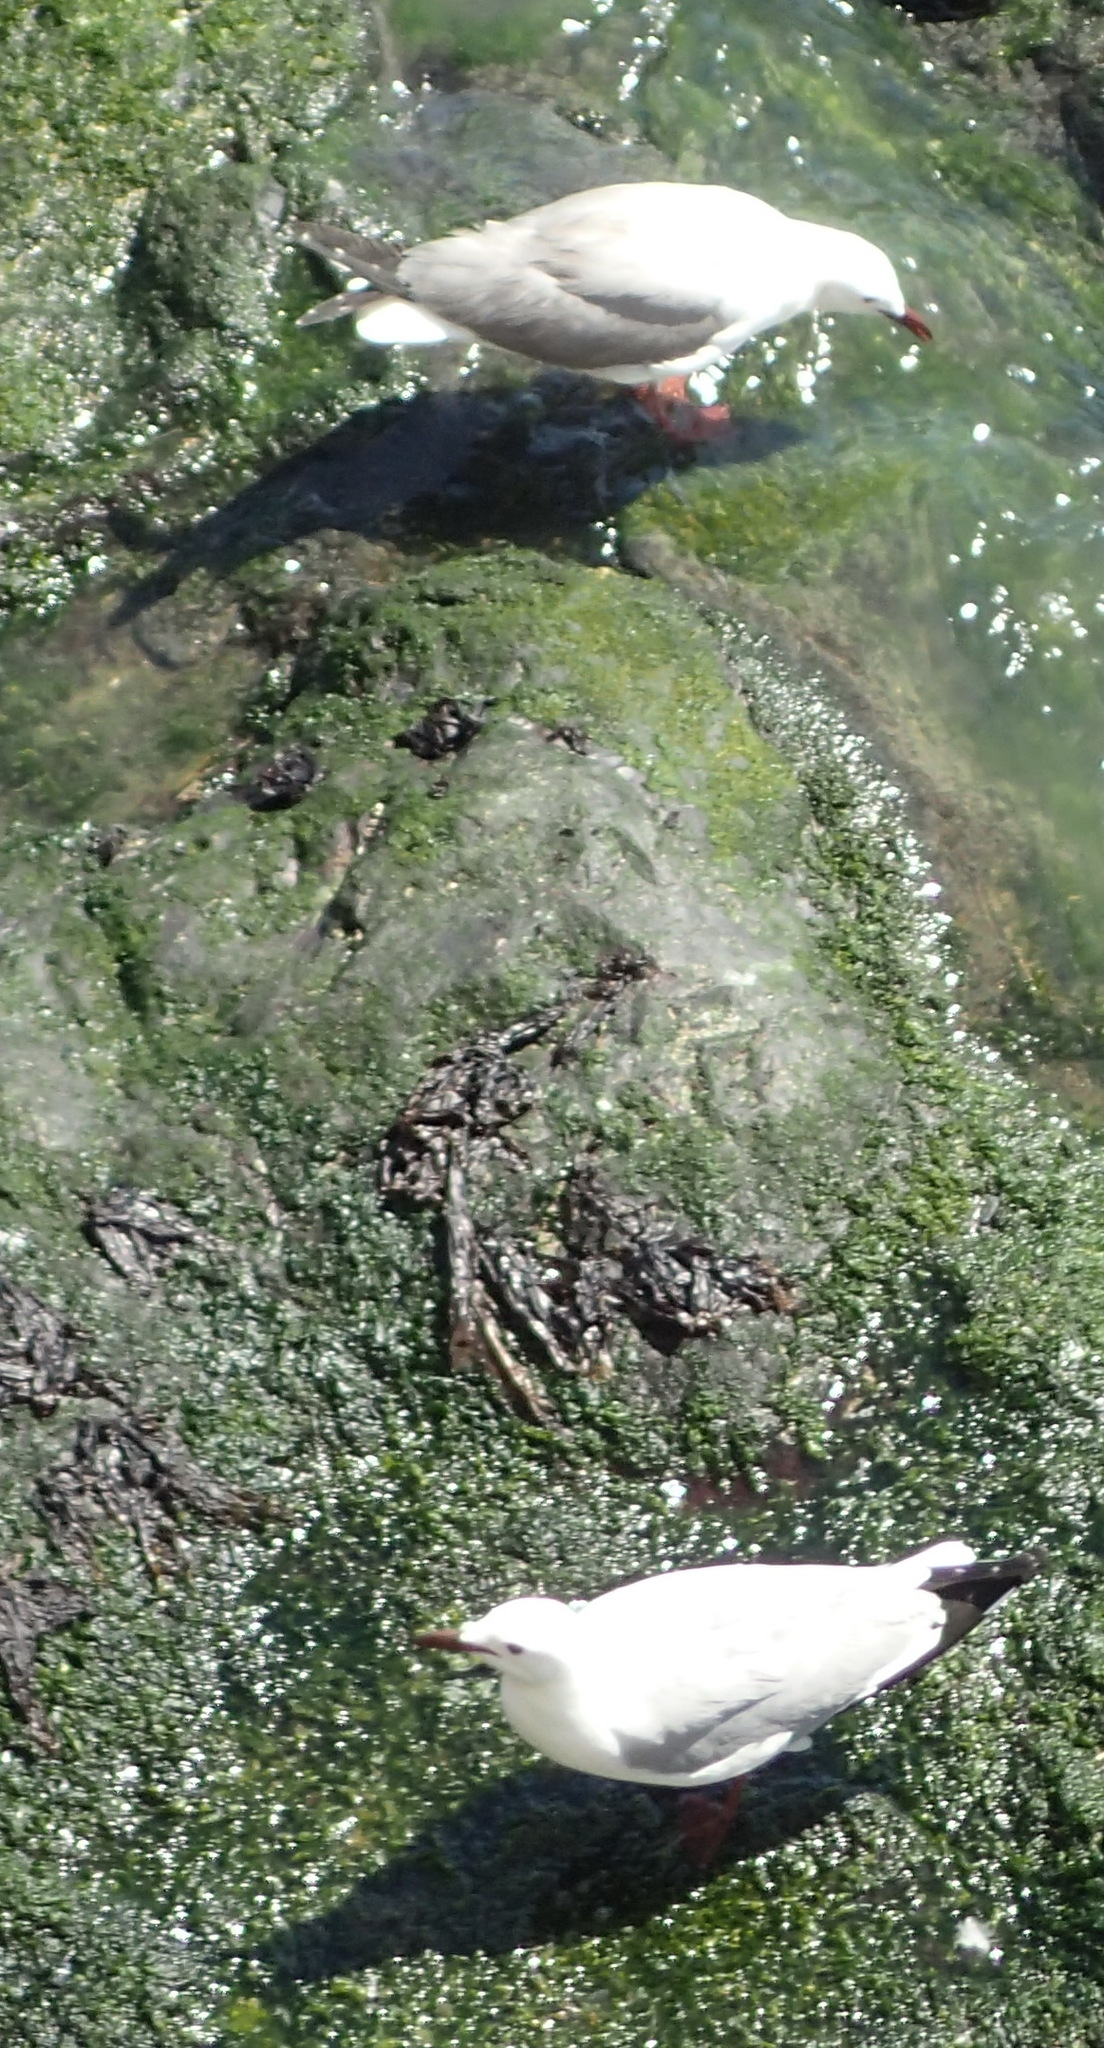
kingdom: Animalia
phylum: Chordata
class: Aves
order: Charadriiformes
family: Laridae
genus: Chroicocephalus
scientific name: Chroicocephalus hartlaubii
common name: Hartlaub's gull
